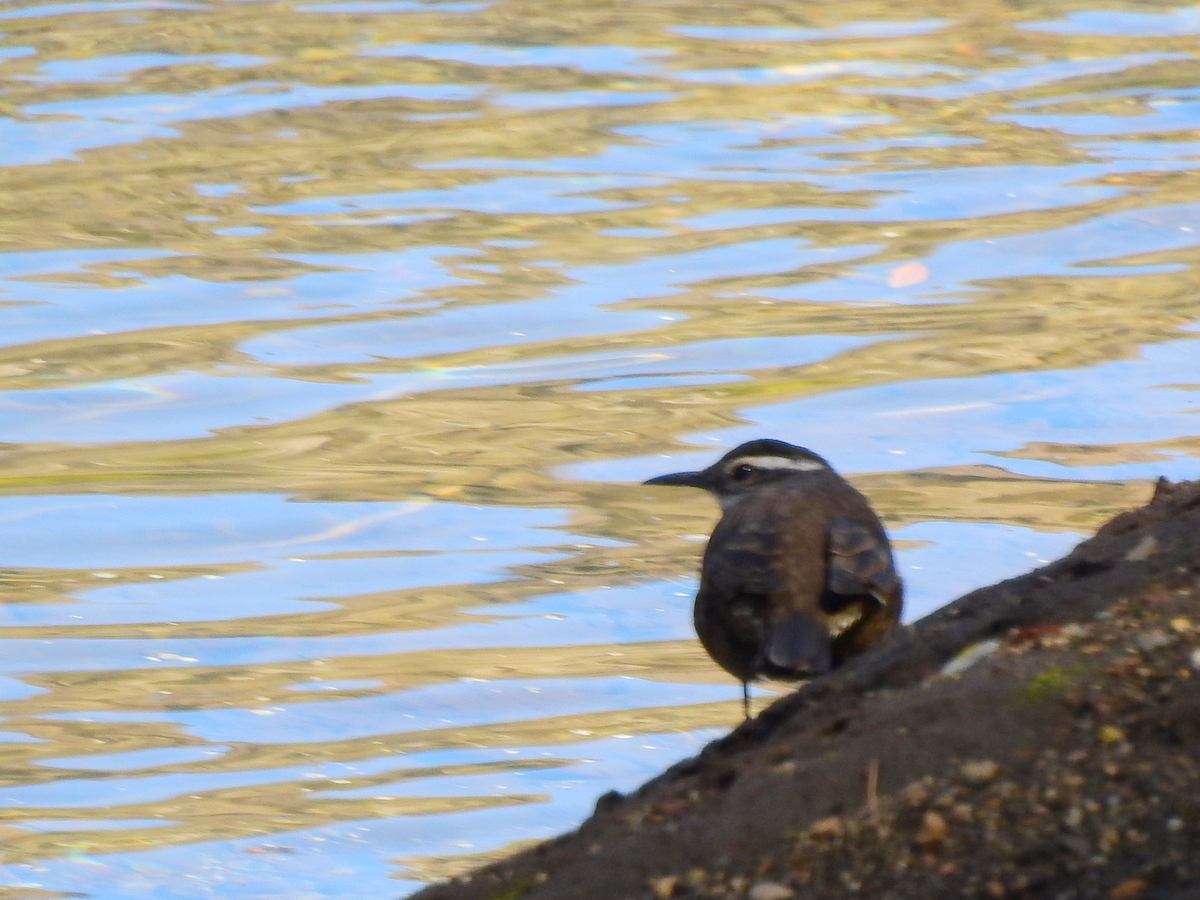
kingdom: Animalia
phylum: Chordata
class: Aves
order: Passeriformes
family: Furnariidae
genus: Cinclodes
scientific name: Cinclodes patagonicus
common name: Dark-bellied cinclodes
